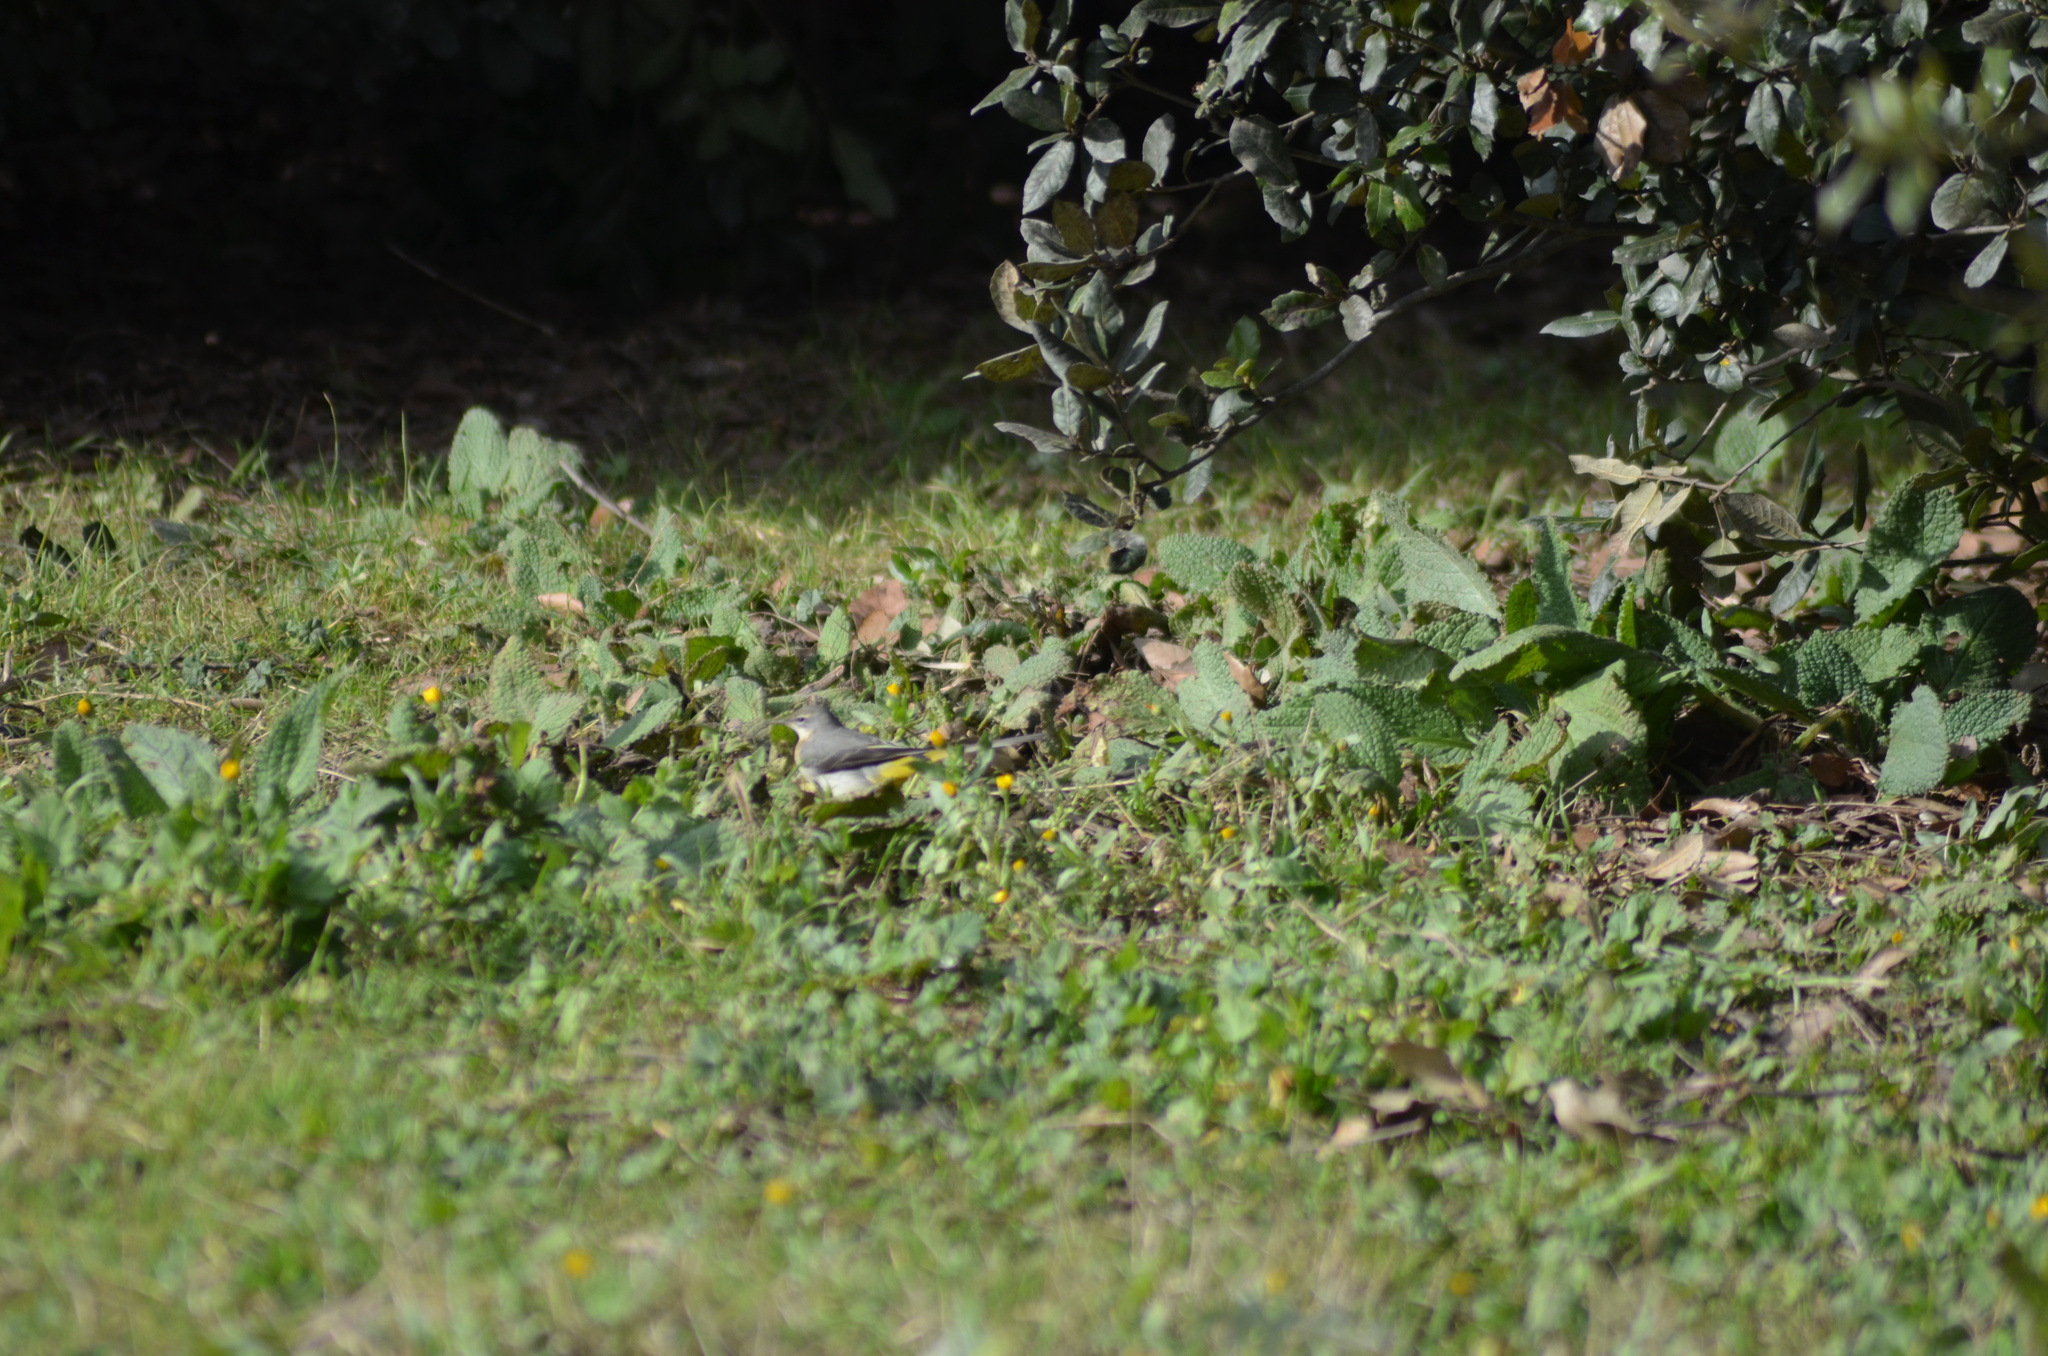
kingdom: Animalia
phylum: Chordata
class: Aves
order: Passeriformes
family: Motacillidae
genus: Motacilla
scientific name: Motacilla cinerea
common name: Grey wagtail
